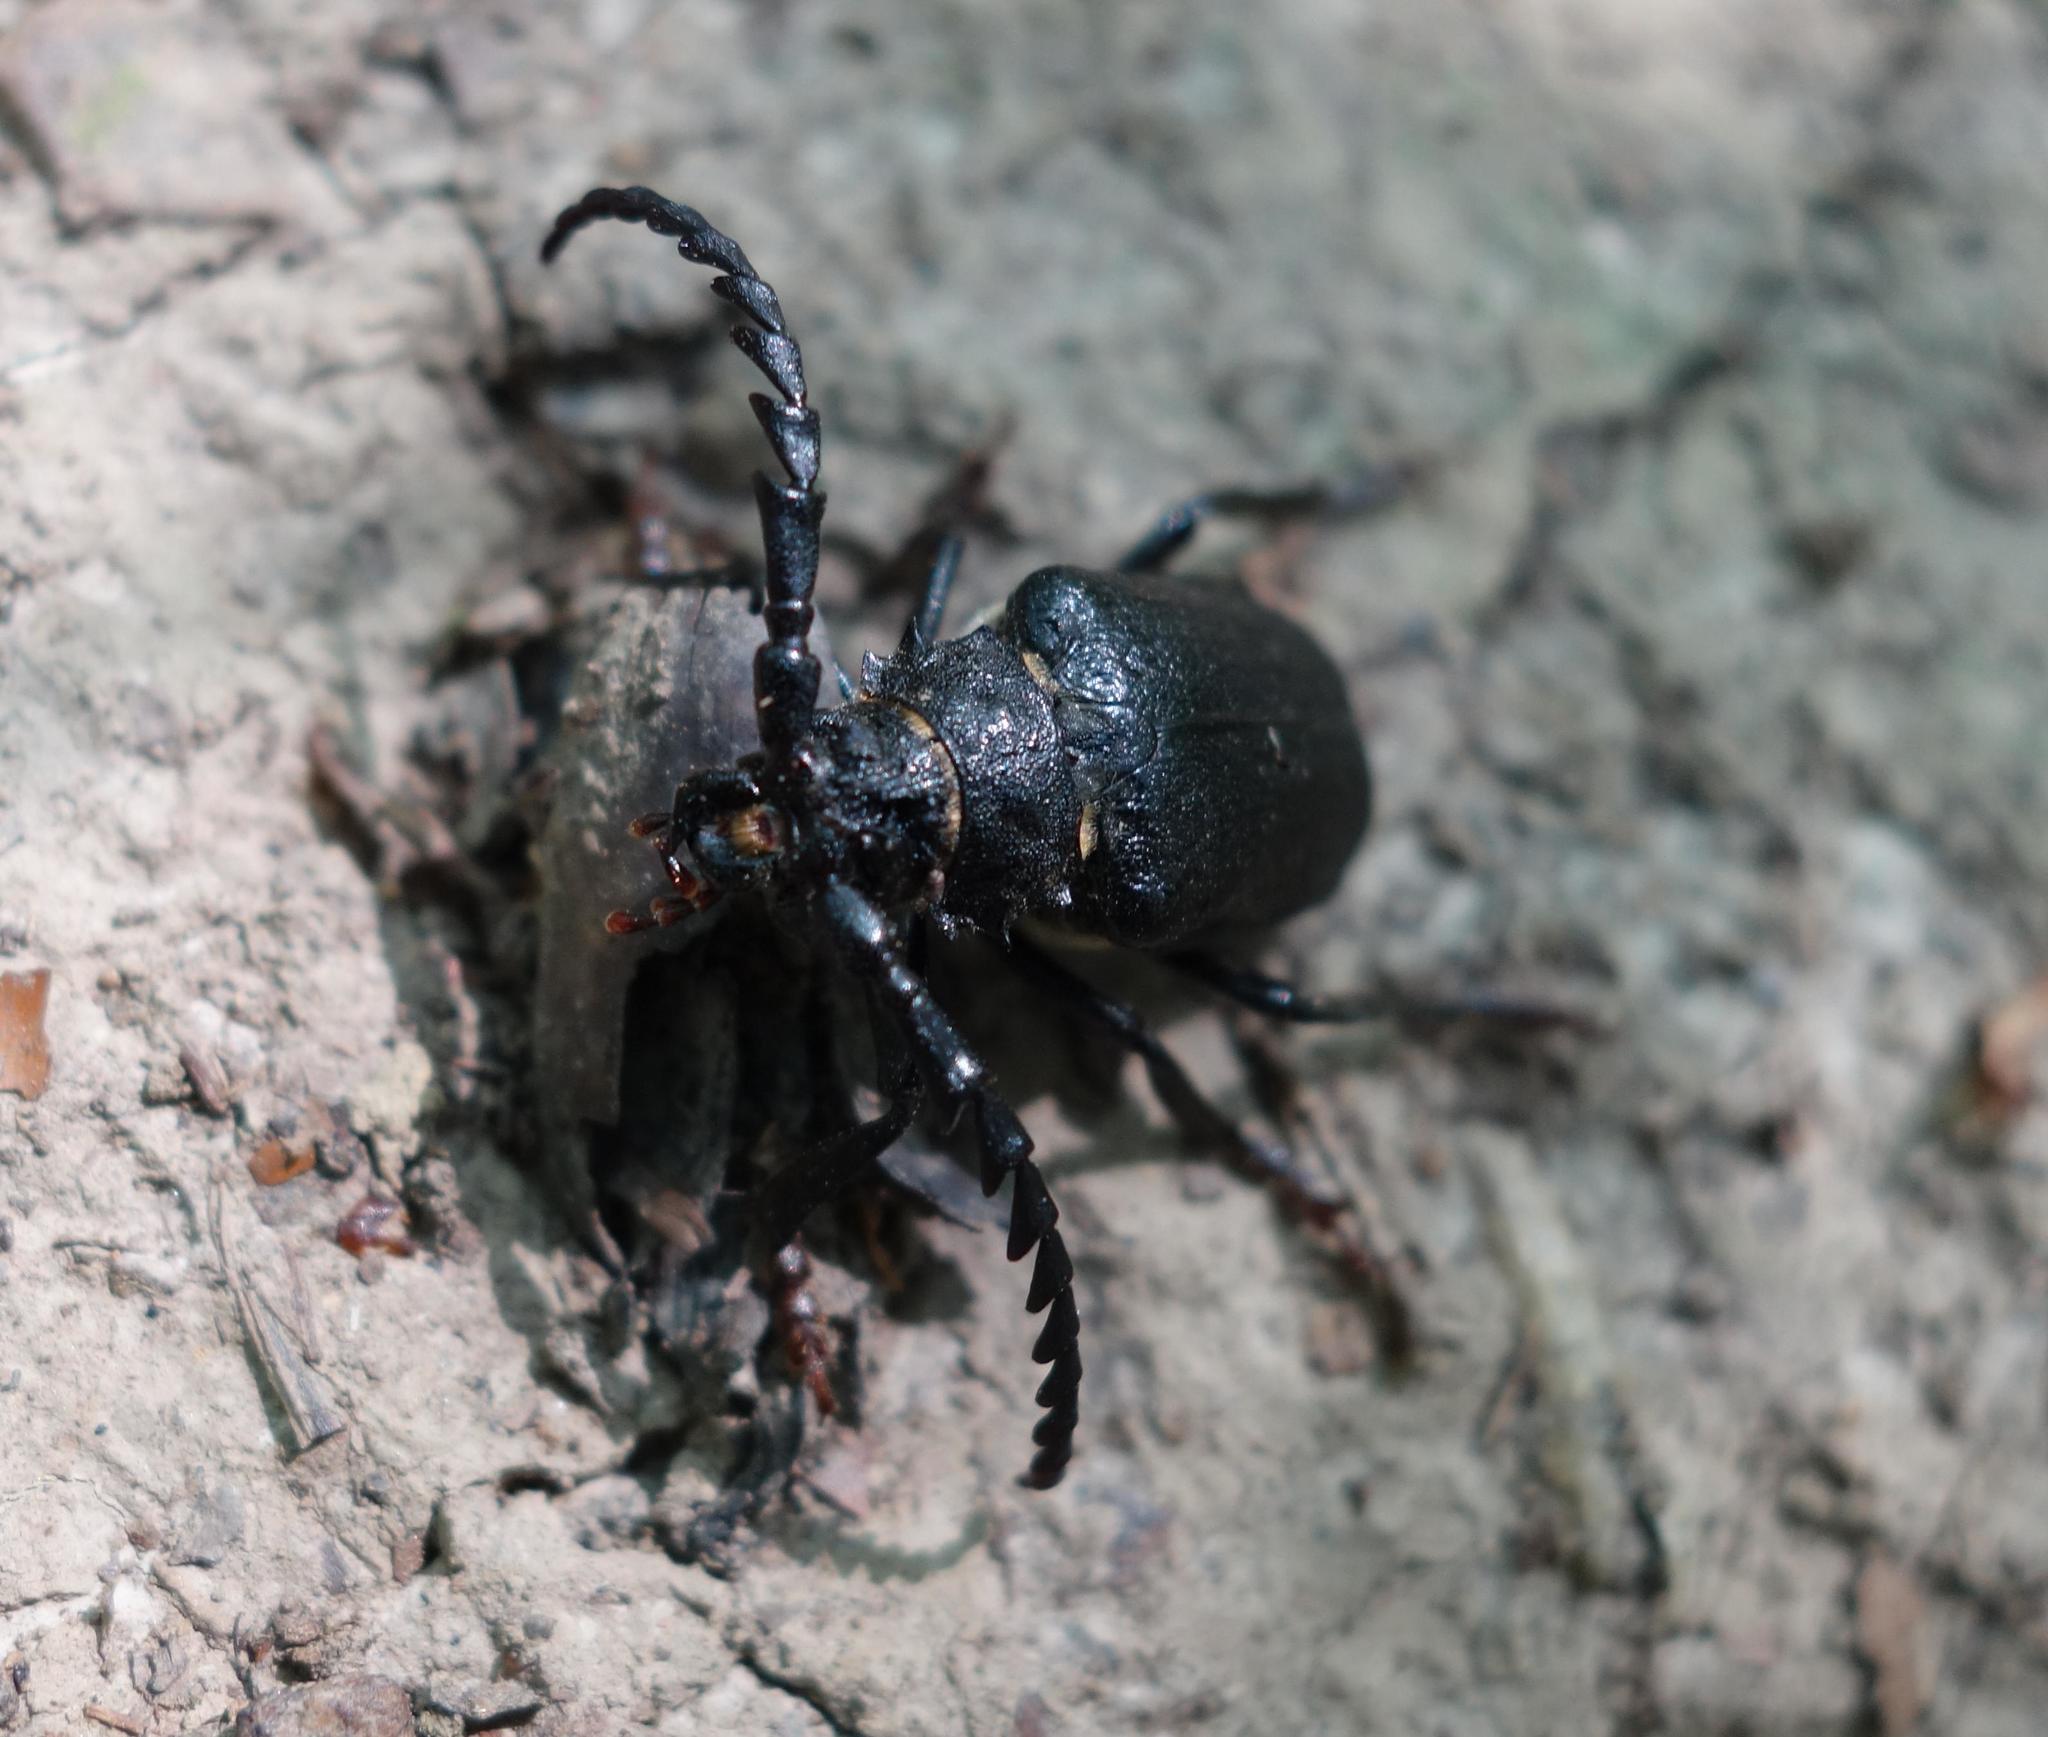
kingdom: Animalia
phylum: Arthropoda
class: Insecta
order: Coleoptera
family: Cerambycidae
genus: Prionus
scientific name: Prionus coriarius
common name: Tanner beetle
